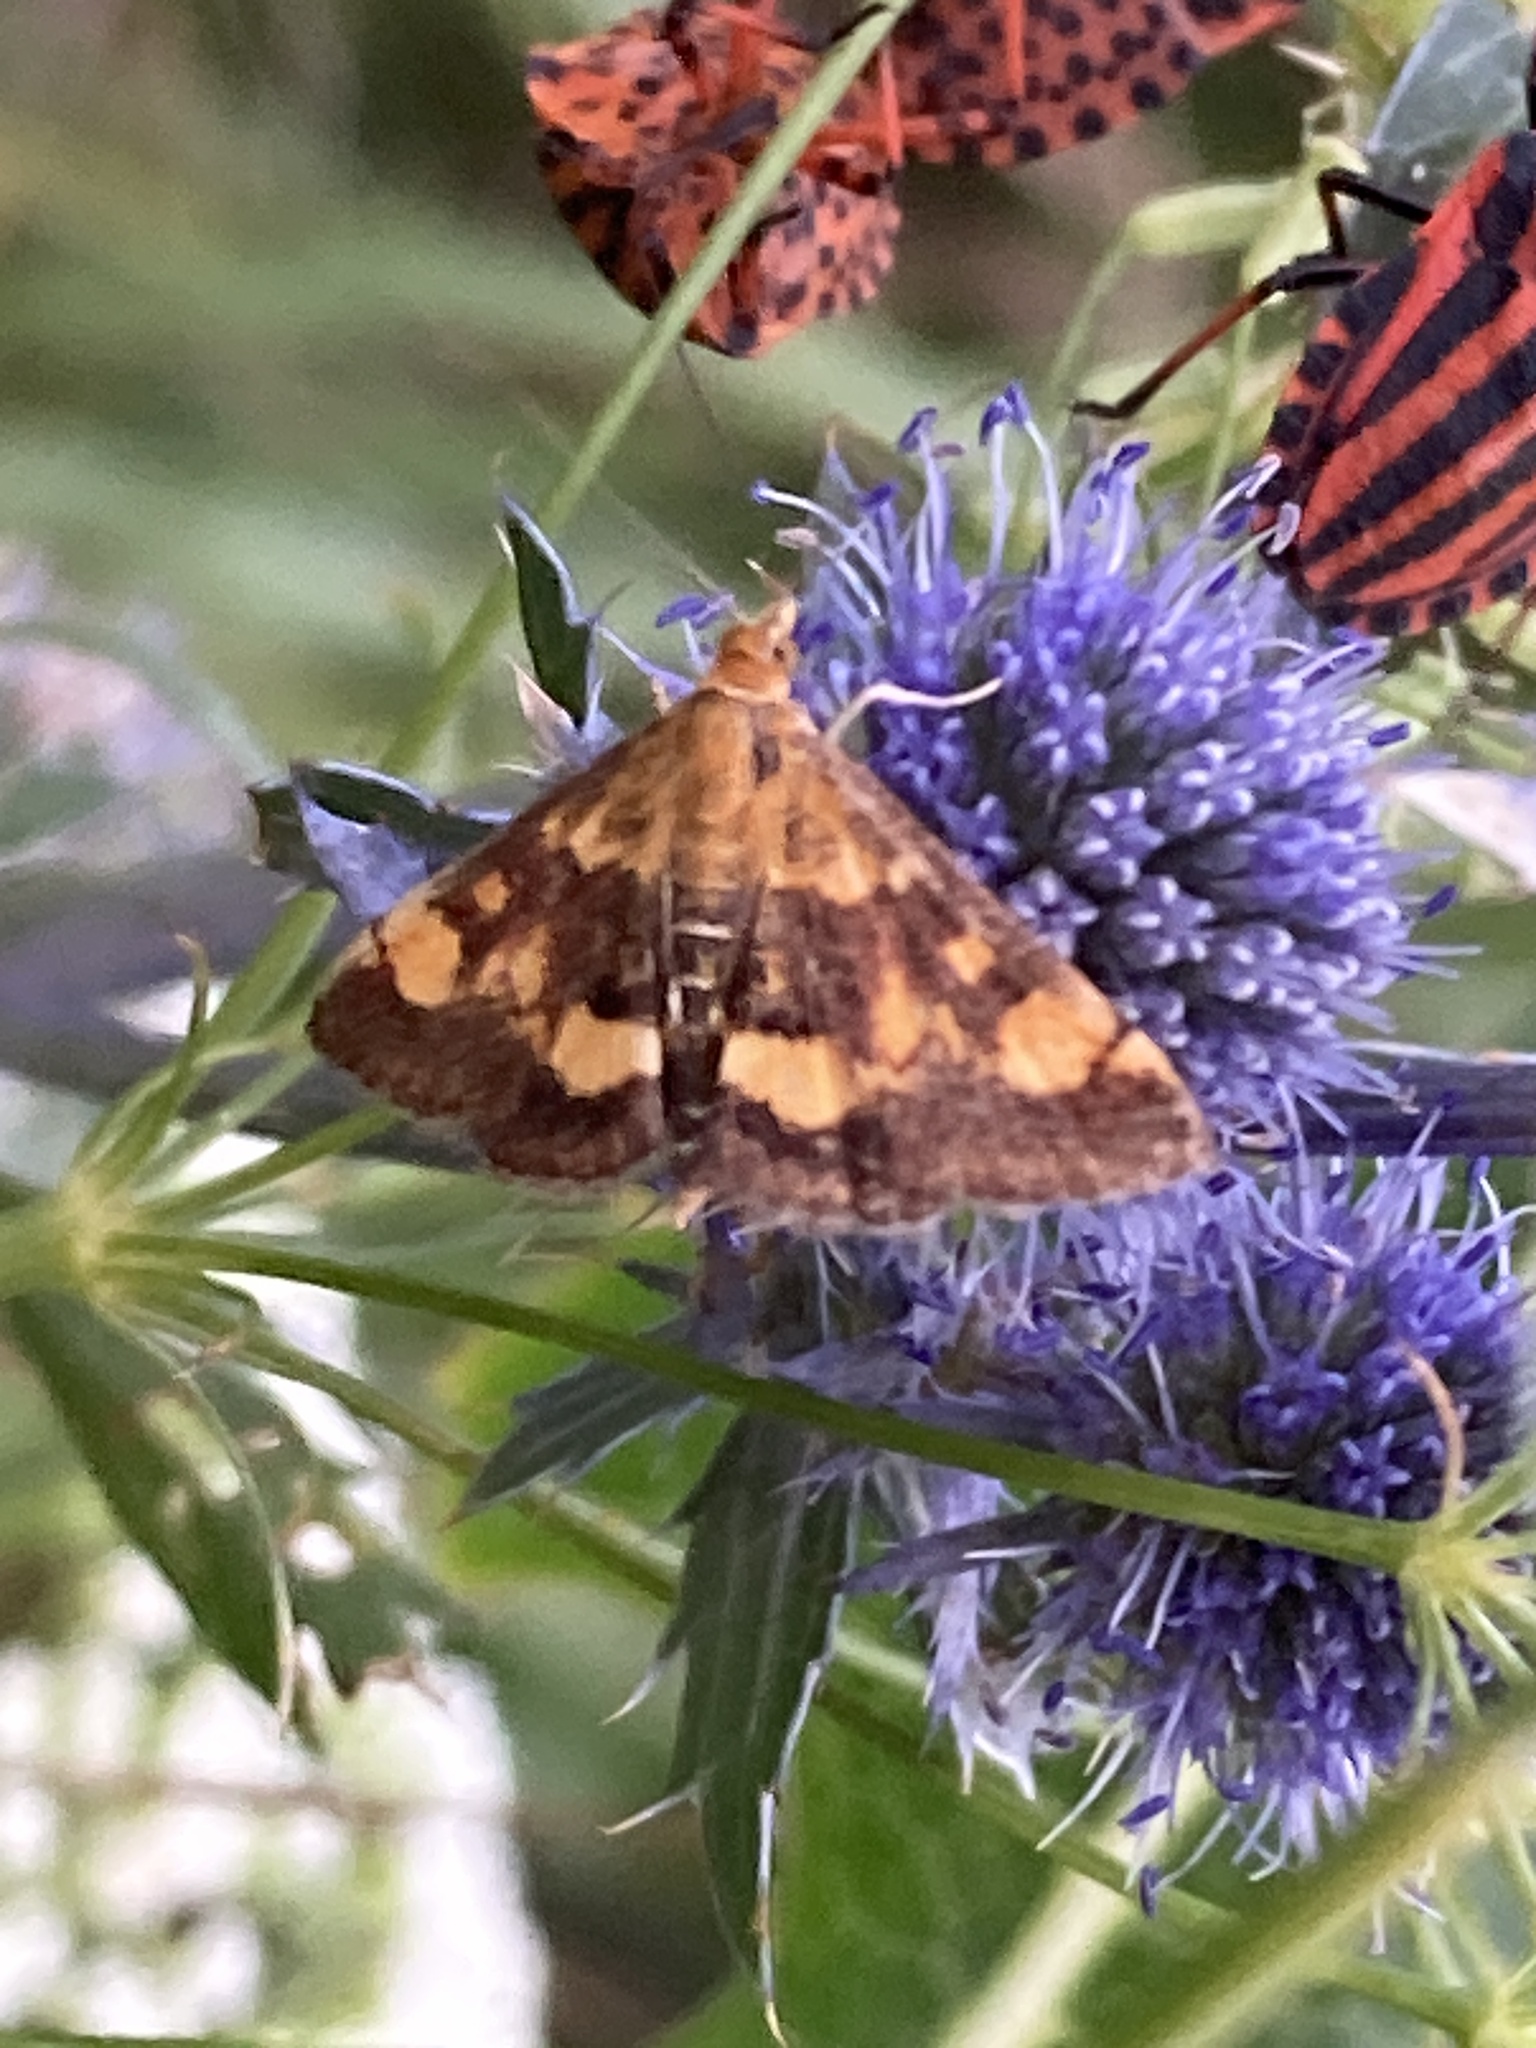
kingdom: Animalia
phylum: Arthropoda
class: Insecta
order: Lepidoptera
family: Crambidae
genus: Pyrausta
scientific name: Pyrausta aurata
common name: Small purple & gold
